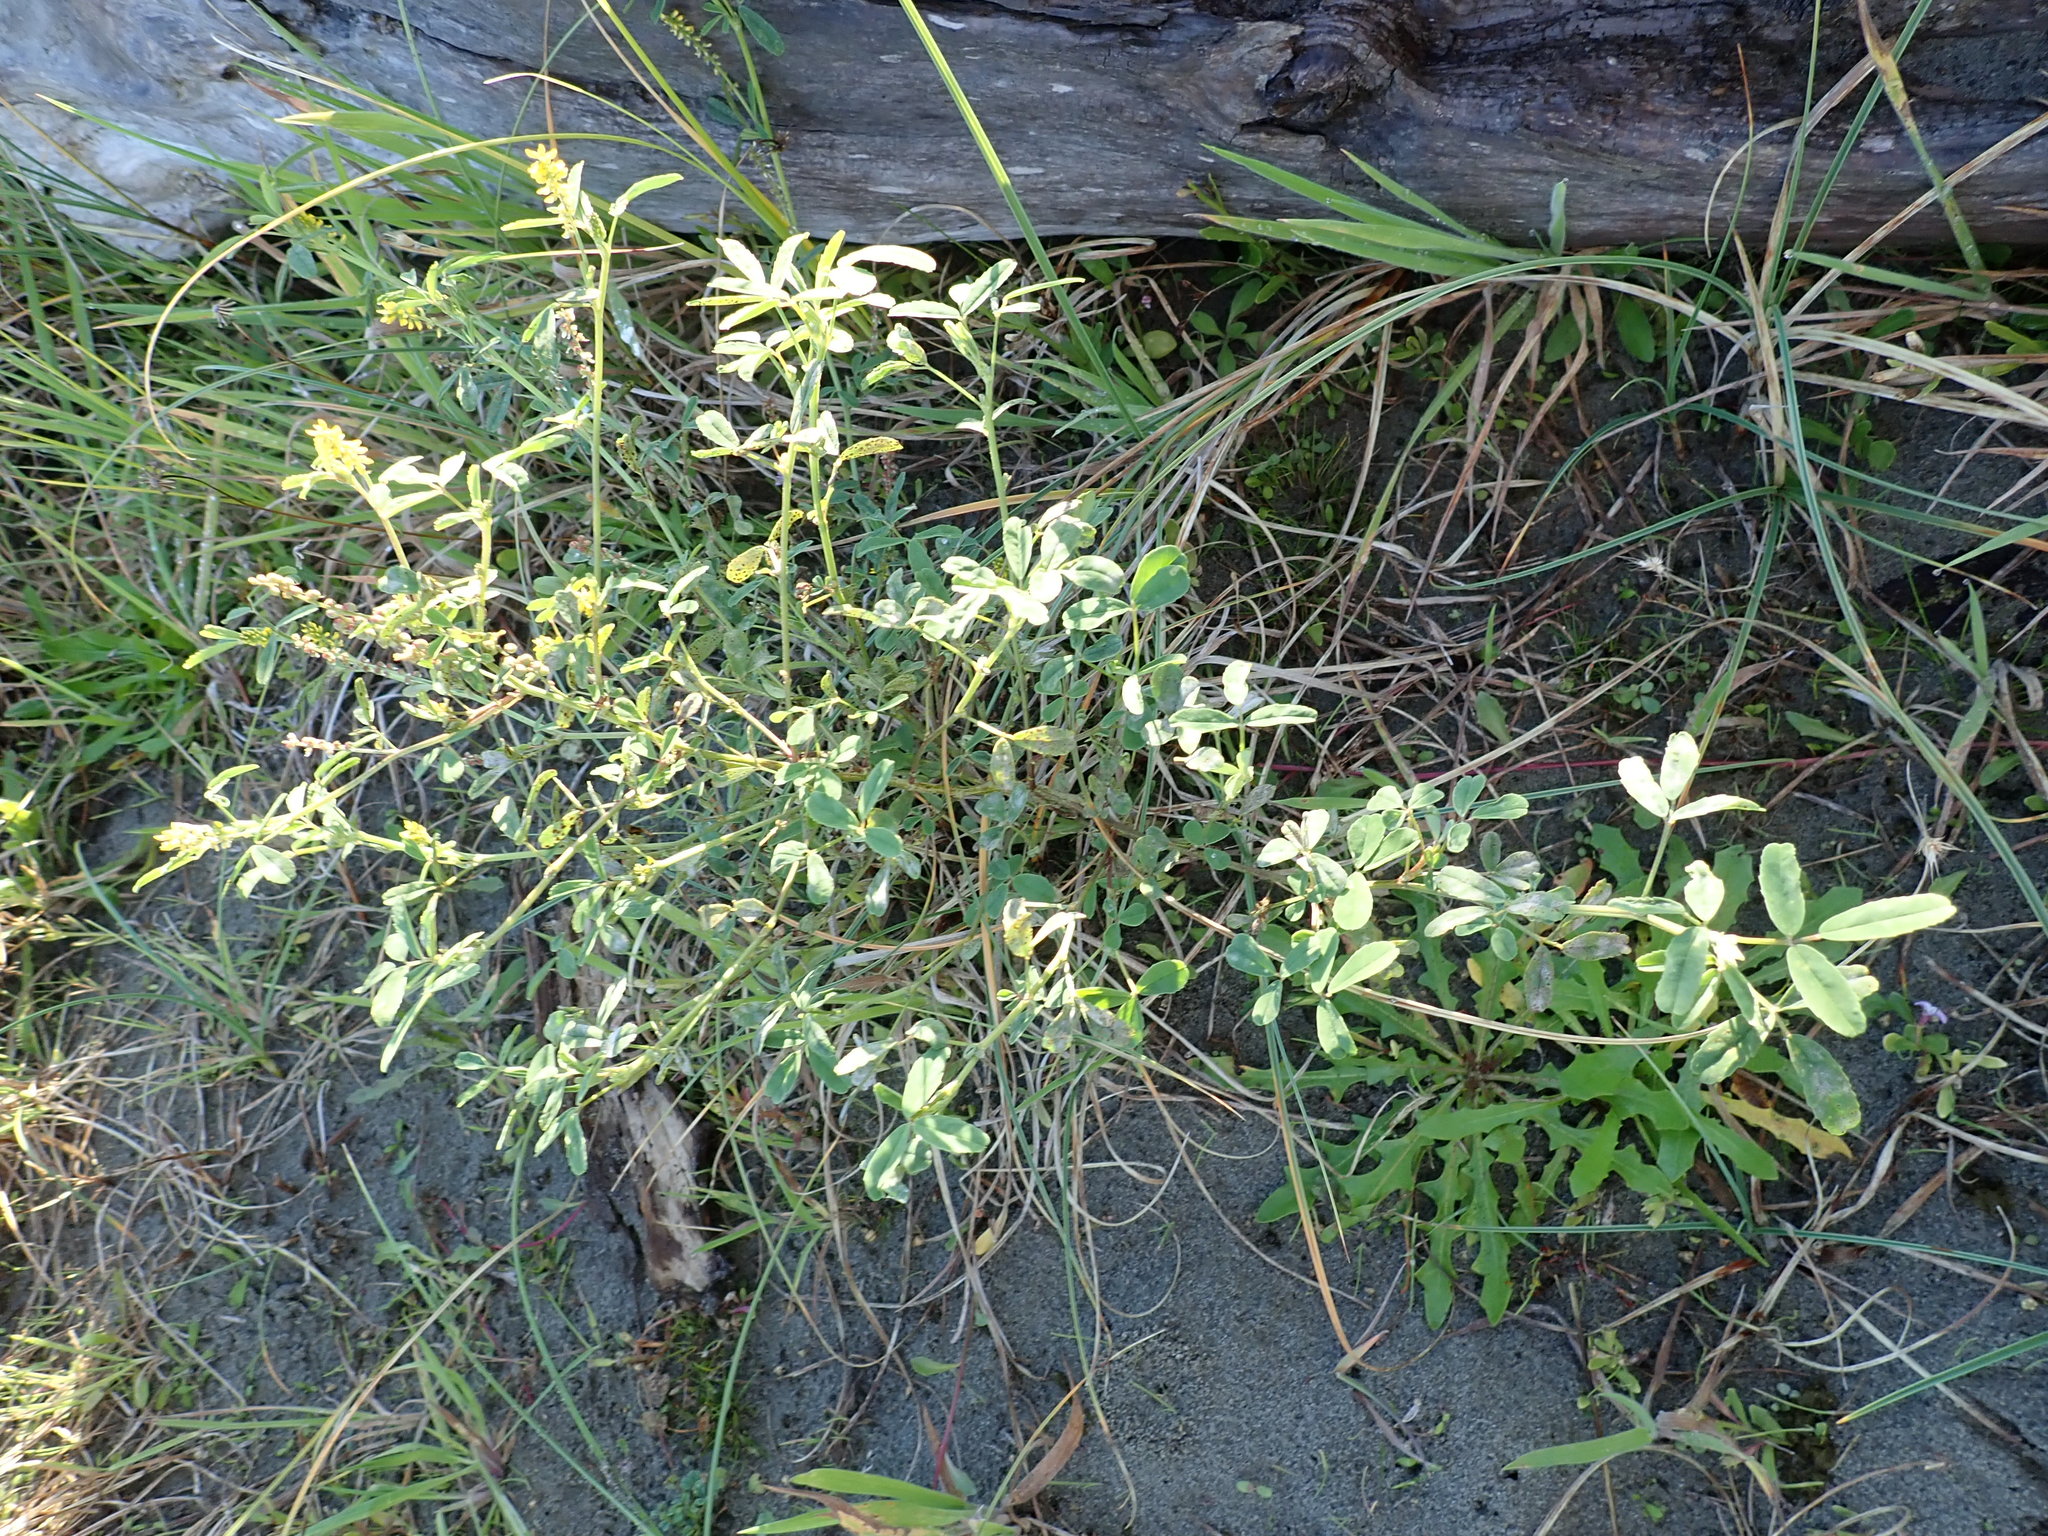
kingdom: Plantae
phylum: Tracheophyta
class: Magnoliopsida
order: Fabales
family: Fabaceae
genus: Melilotus
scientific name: Melilotus indicus
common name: Small melilot
